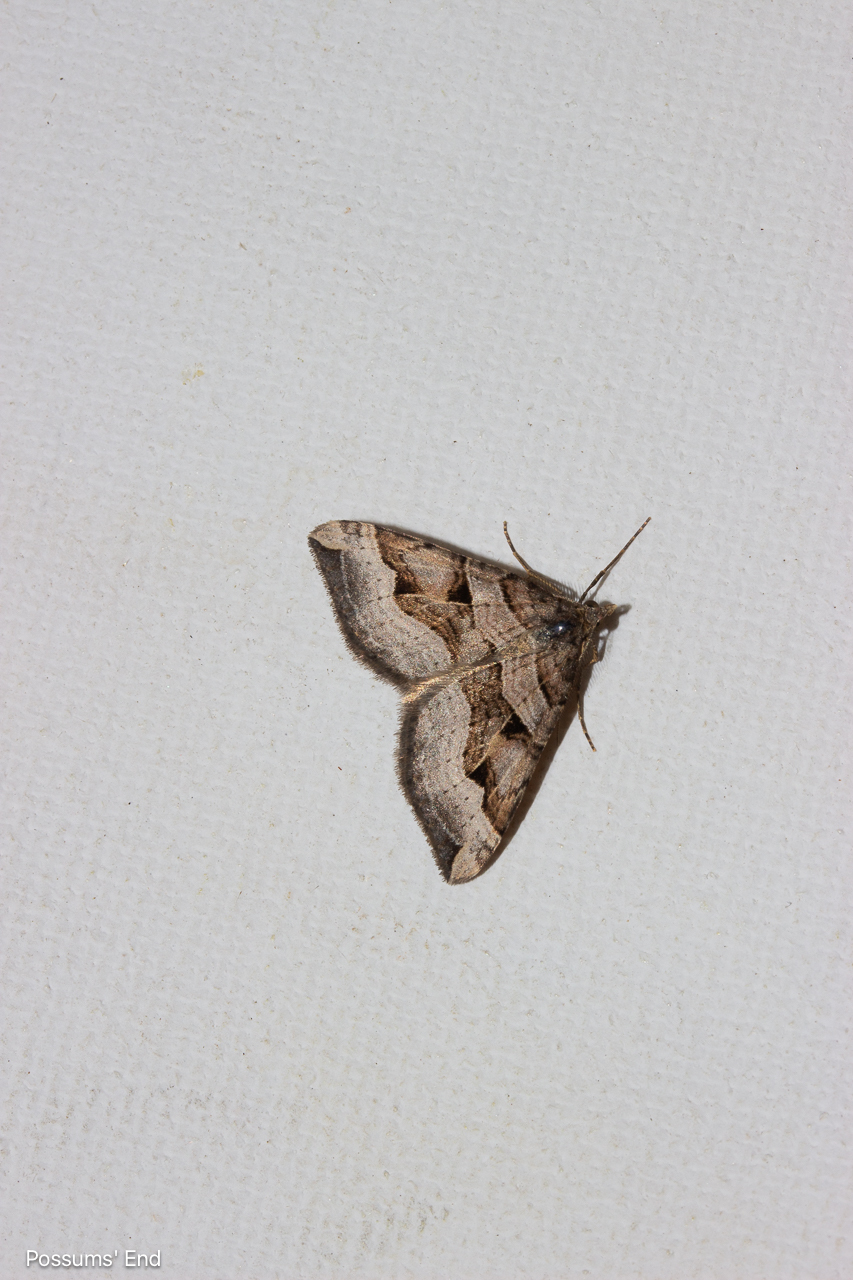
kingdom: Animalia
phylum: Arthropoda
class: Insecta
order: Lepidoptera
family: Geometridae
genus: Xanthorhoe
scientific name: Xanthorhoe semifissata
